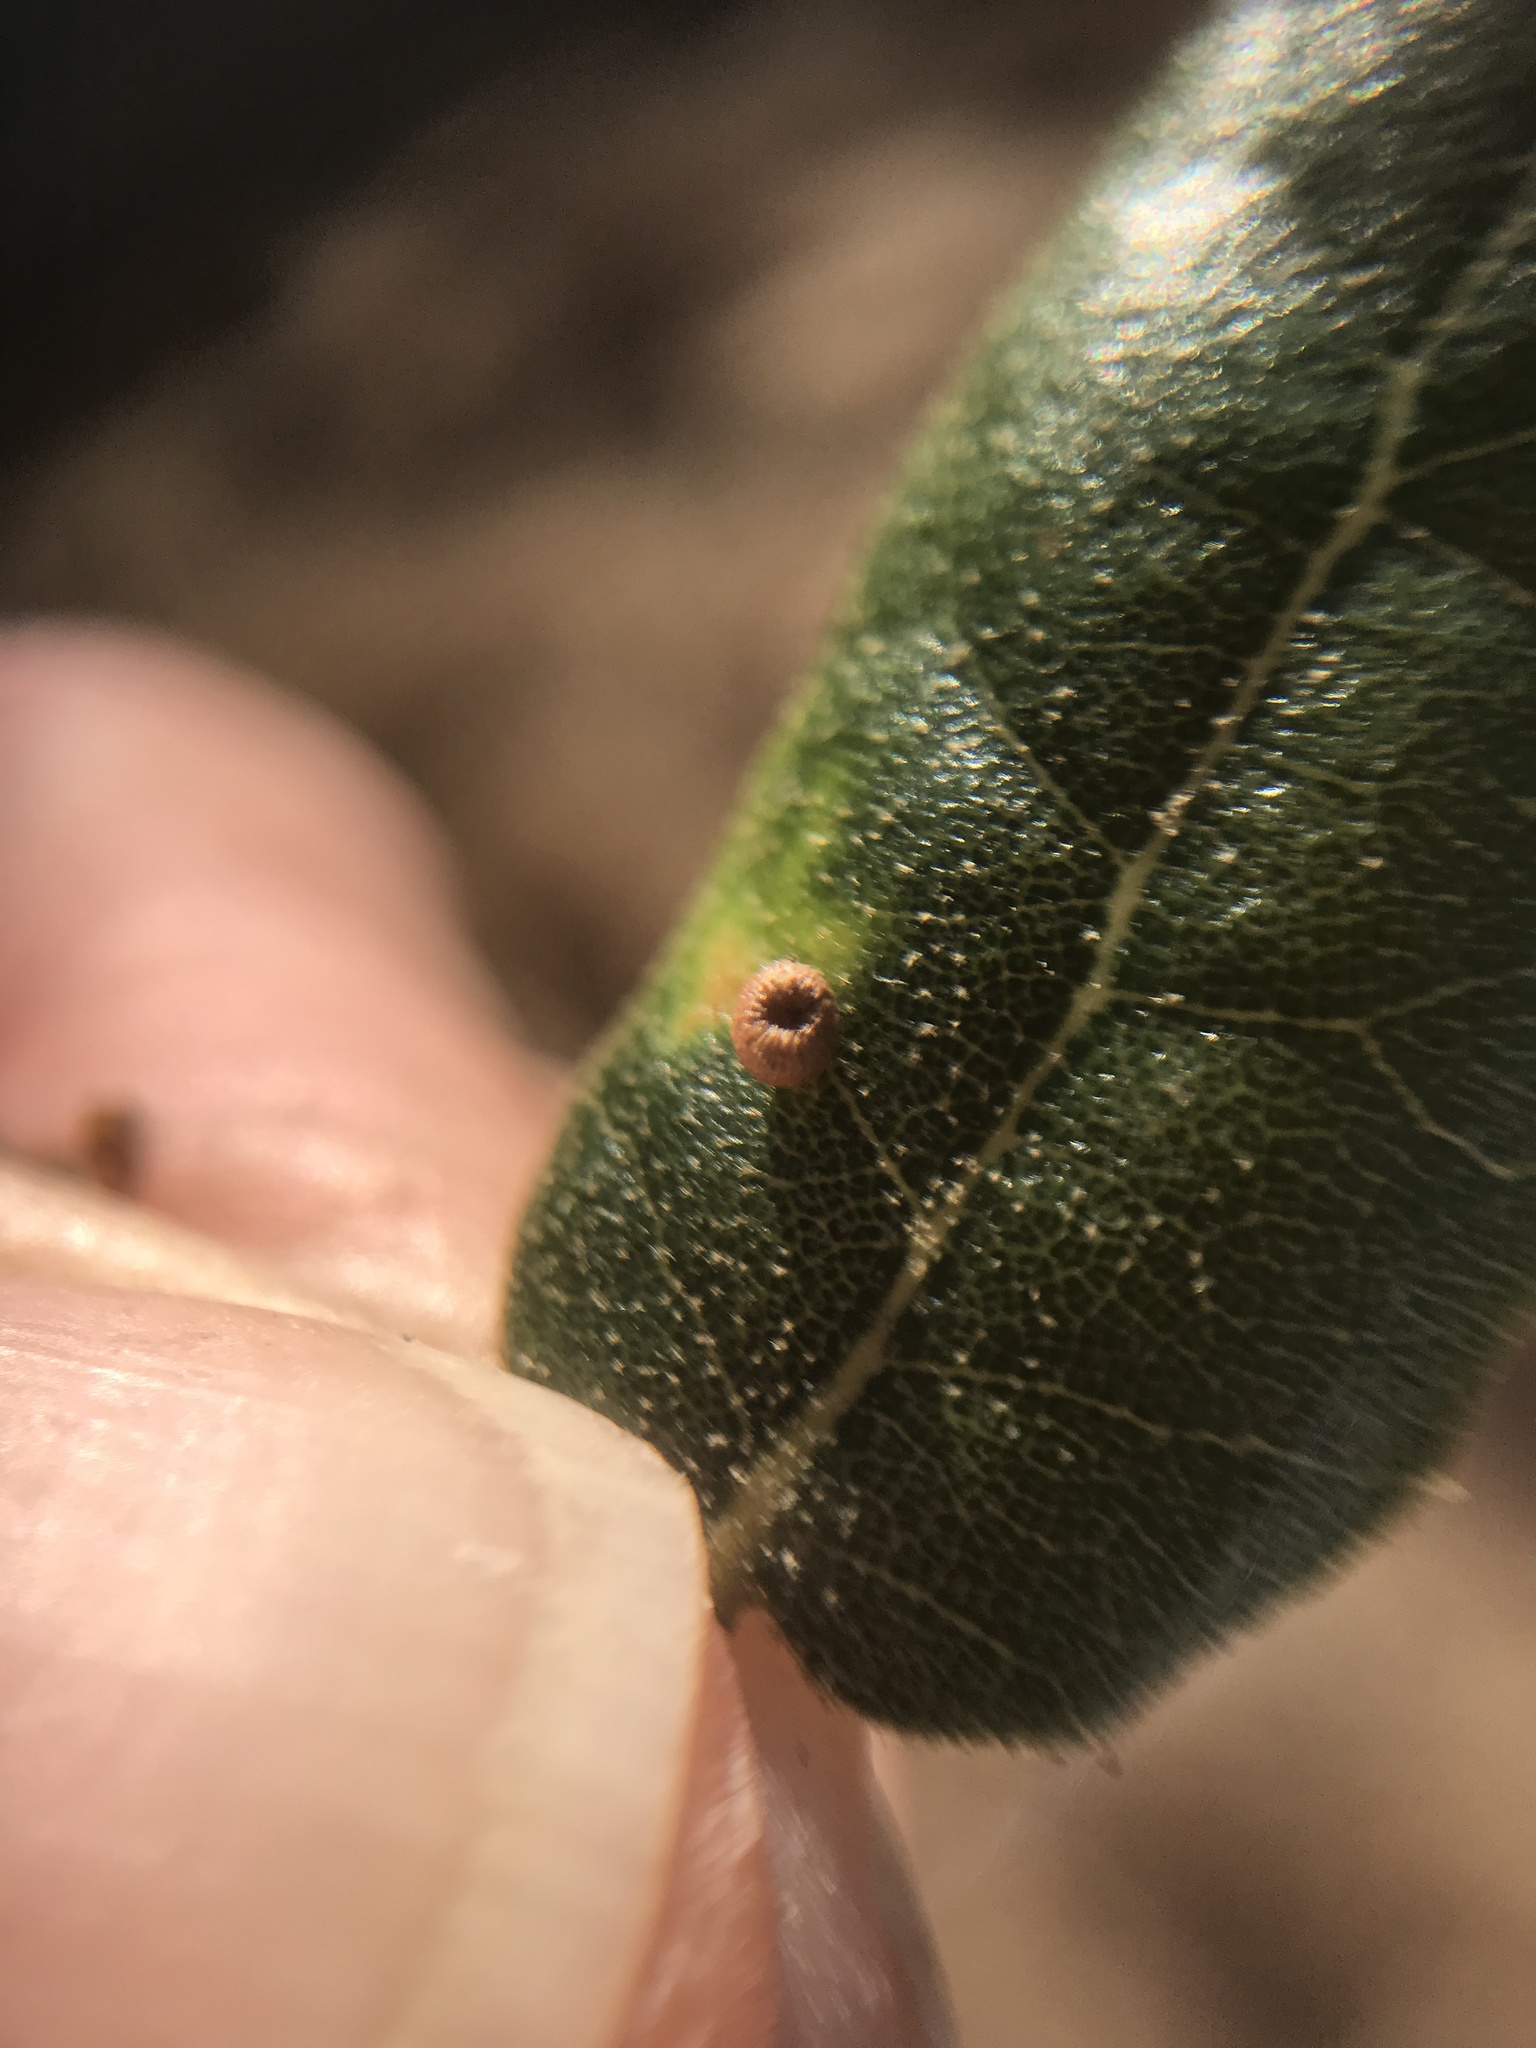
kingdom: Animalia
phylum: Arthropoda
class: Insecta
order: Hymenoptera
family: Cynipidae
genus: Dryocosmus
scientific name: Dryocosmus
